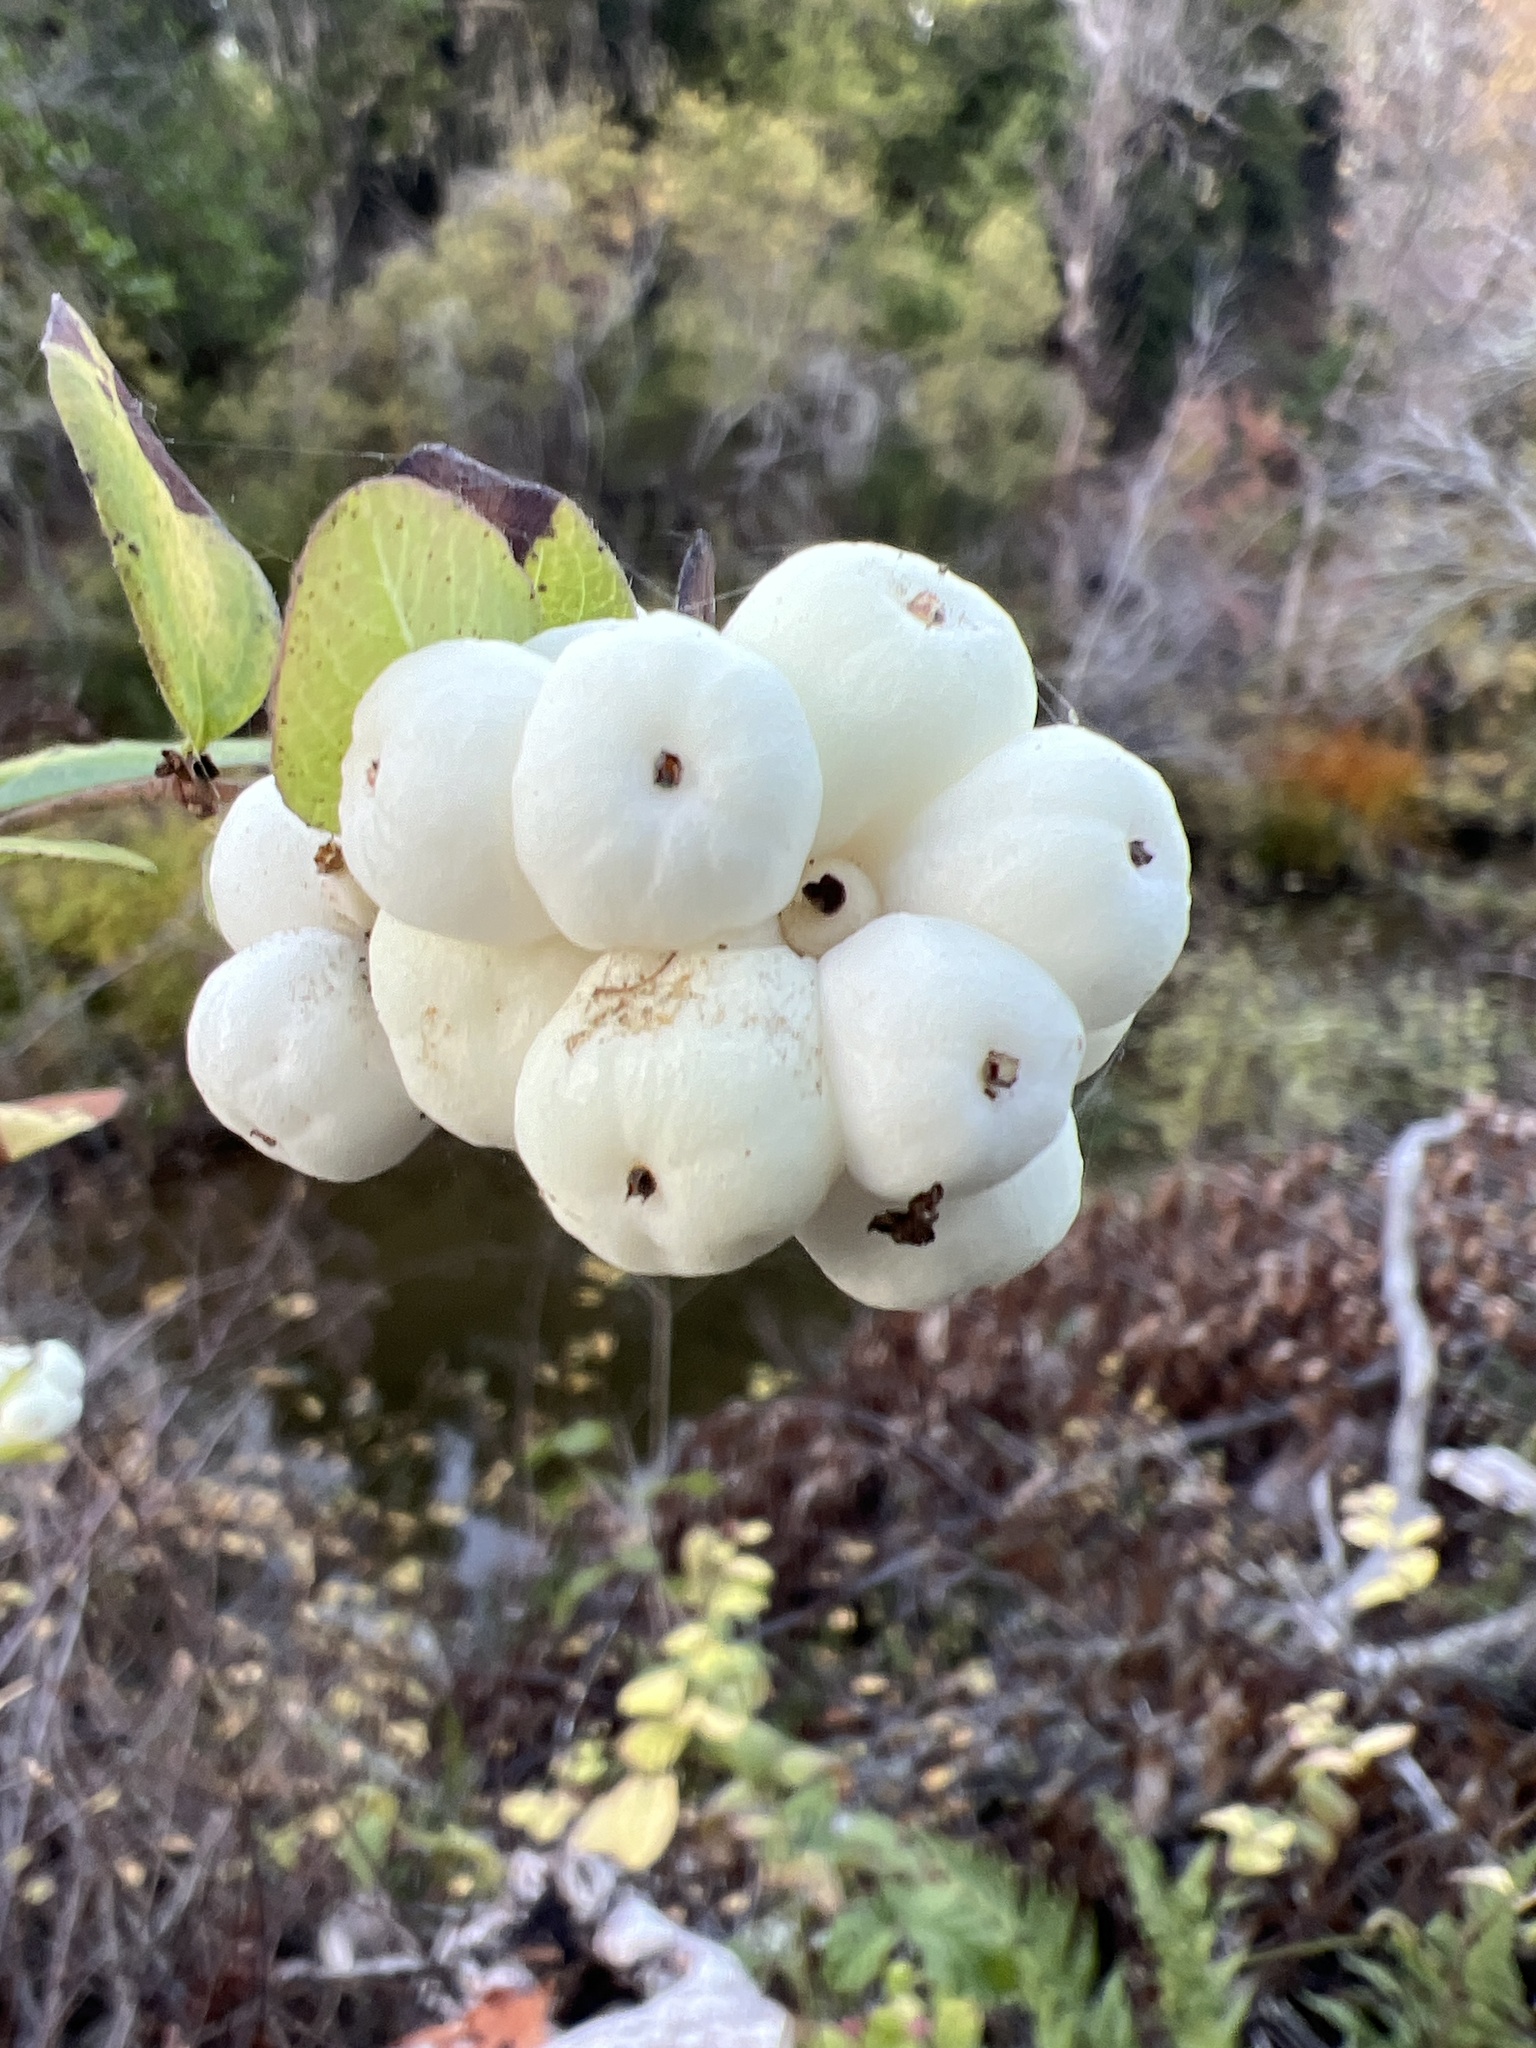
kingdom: Plantae
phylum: Tracheophyta
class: Magnoliopsida
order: Dipsacales
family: Caprifoliaceae
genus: Symphoricarpos
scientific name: Symphoricarpos albus
